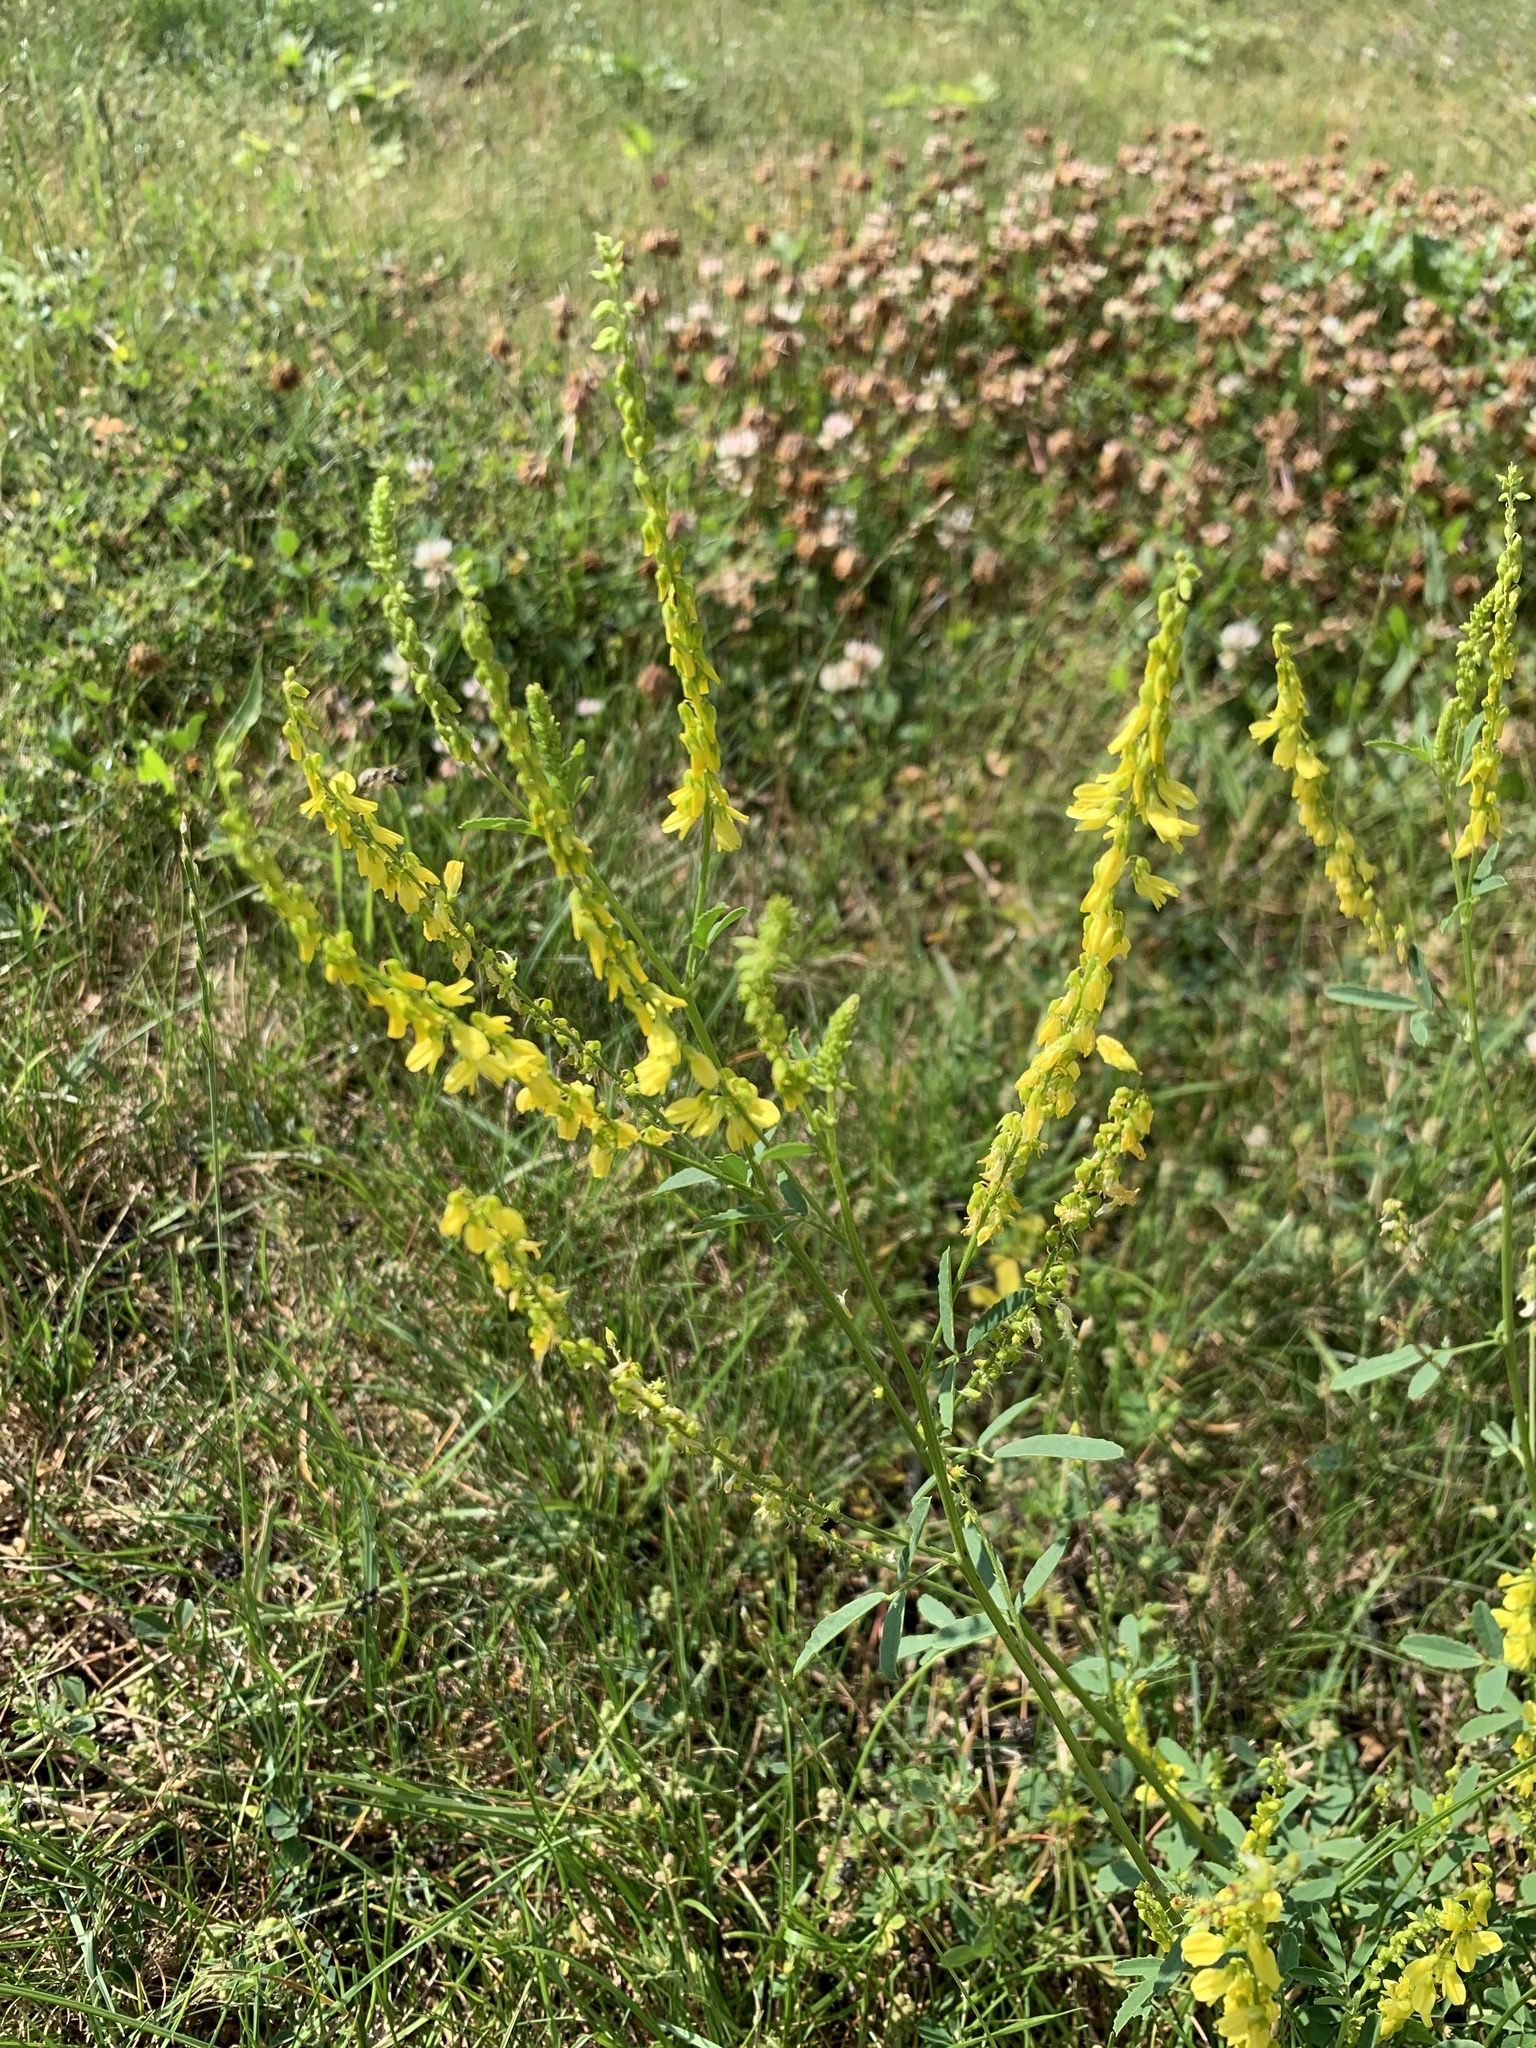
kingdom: Plantae
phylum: Tracheophyta
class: Magnoliopsida
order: Fabales
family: Fabaceae
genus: Melilotus
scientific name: Melilotus officinalis
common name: Sweetclover
